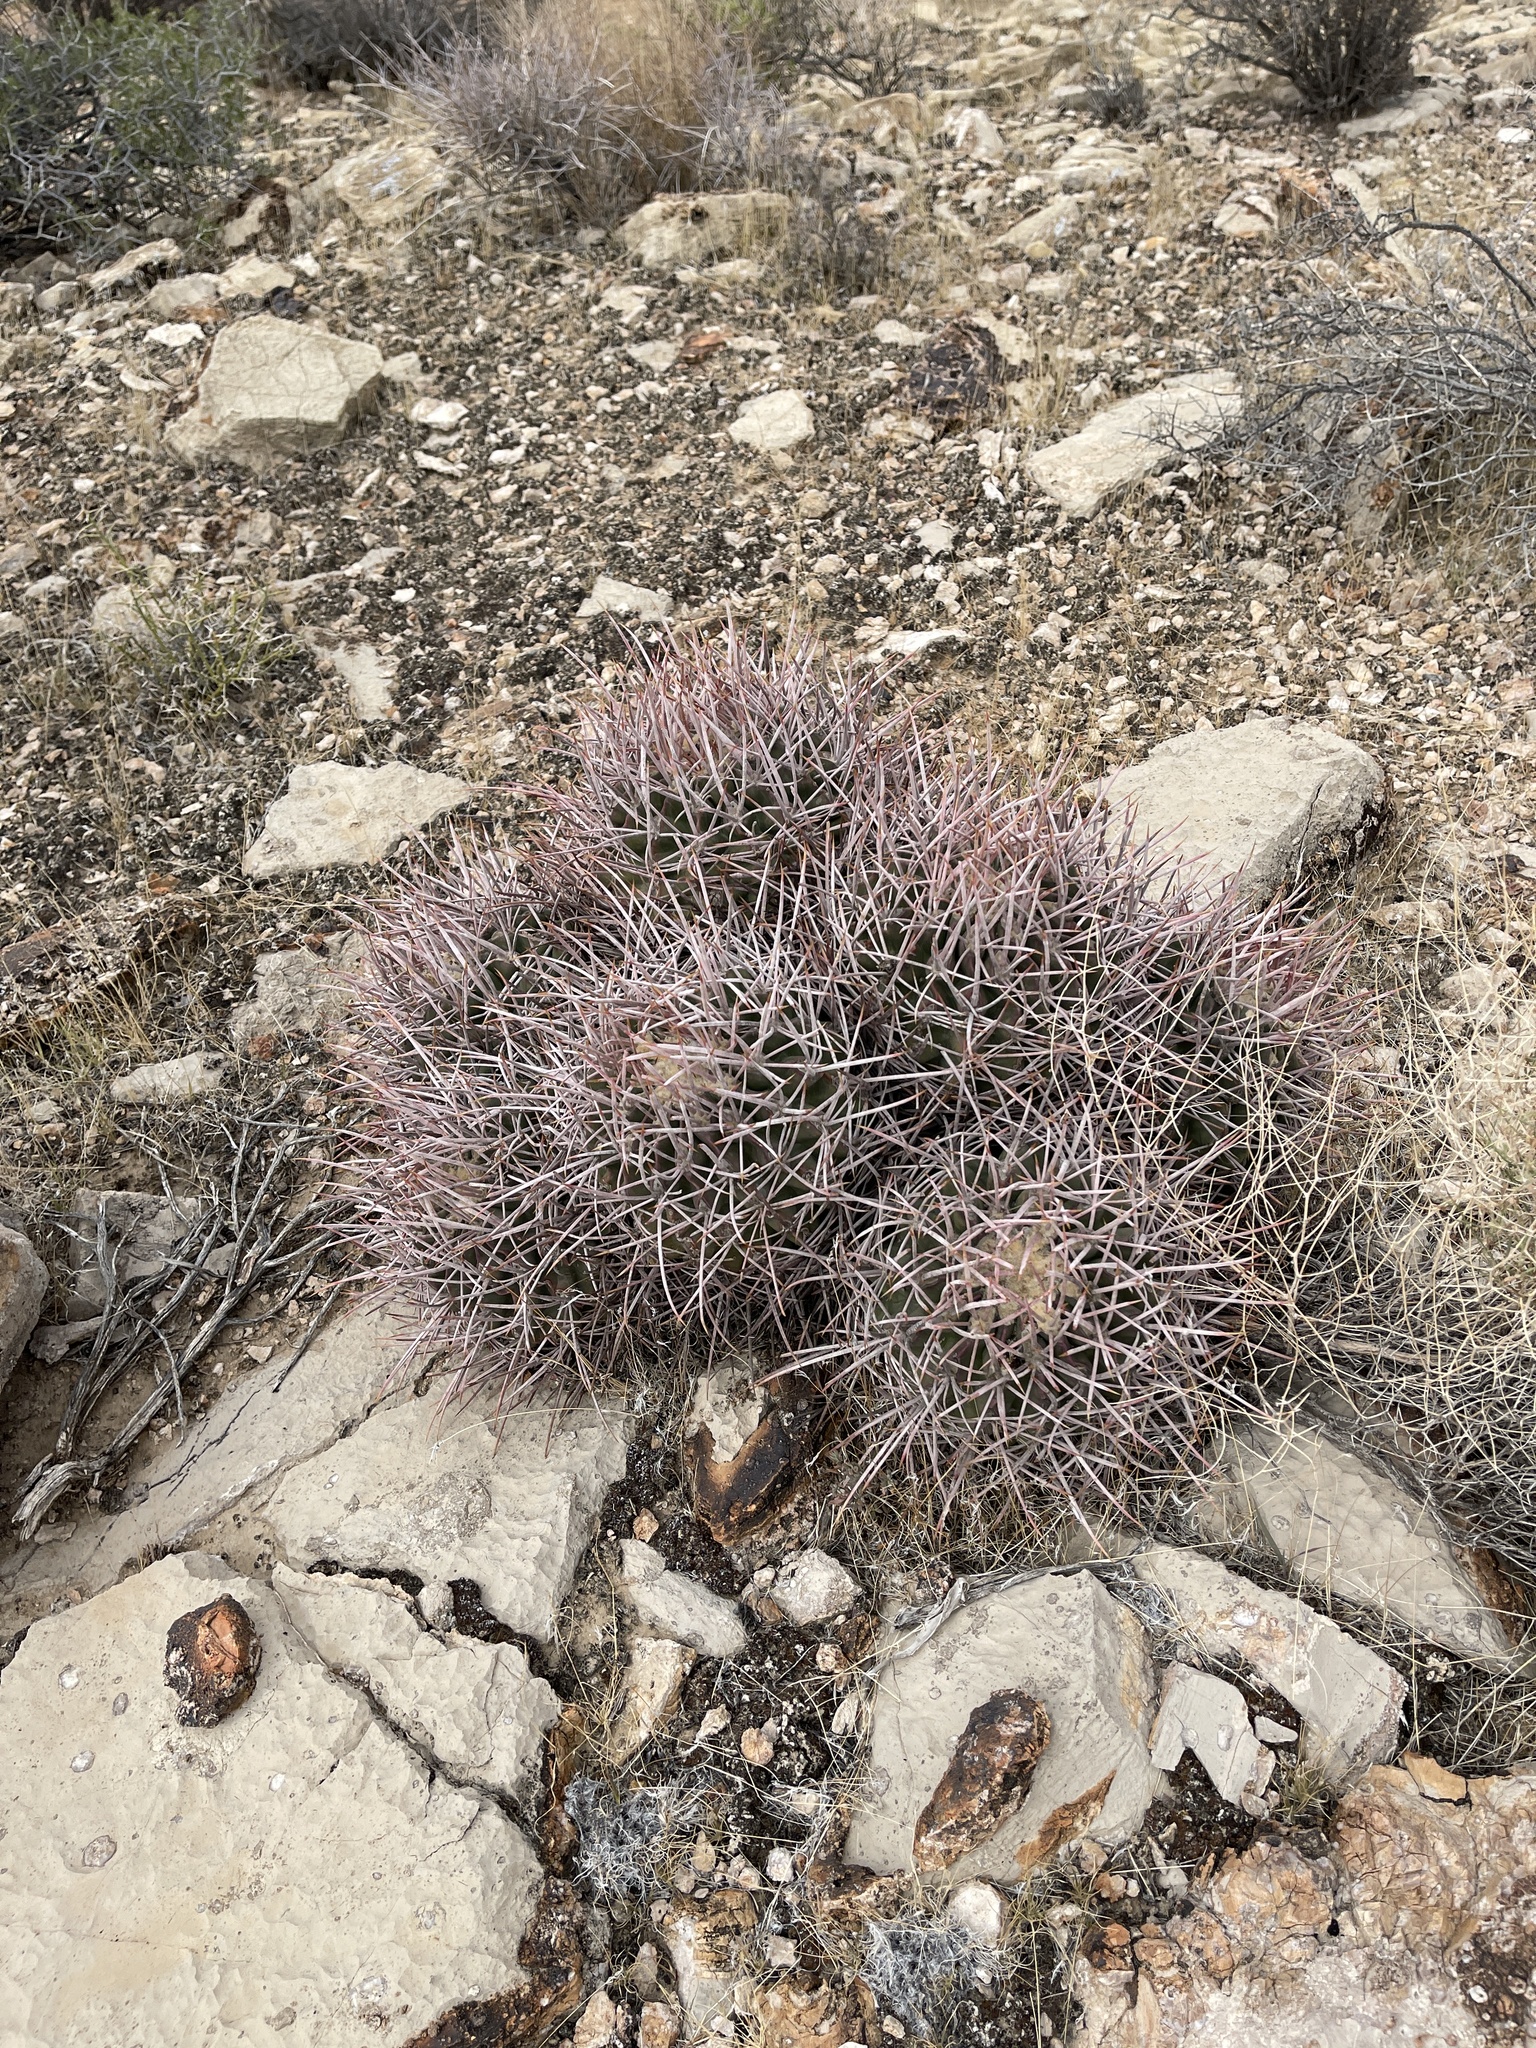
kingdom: Plantae
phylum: Tracheophyta
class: Magnoliopsida
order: Caryophyllales
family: Cactaceae
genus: Echinocactus
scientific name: Echinocactus polycephalus
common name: Cottontop cactus
